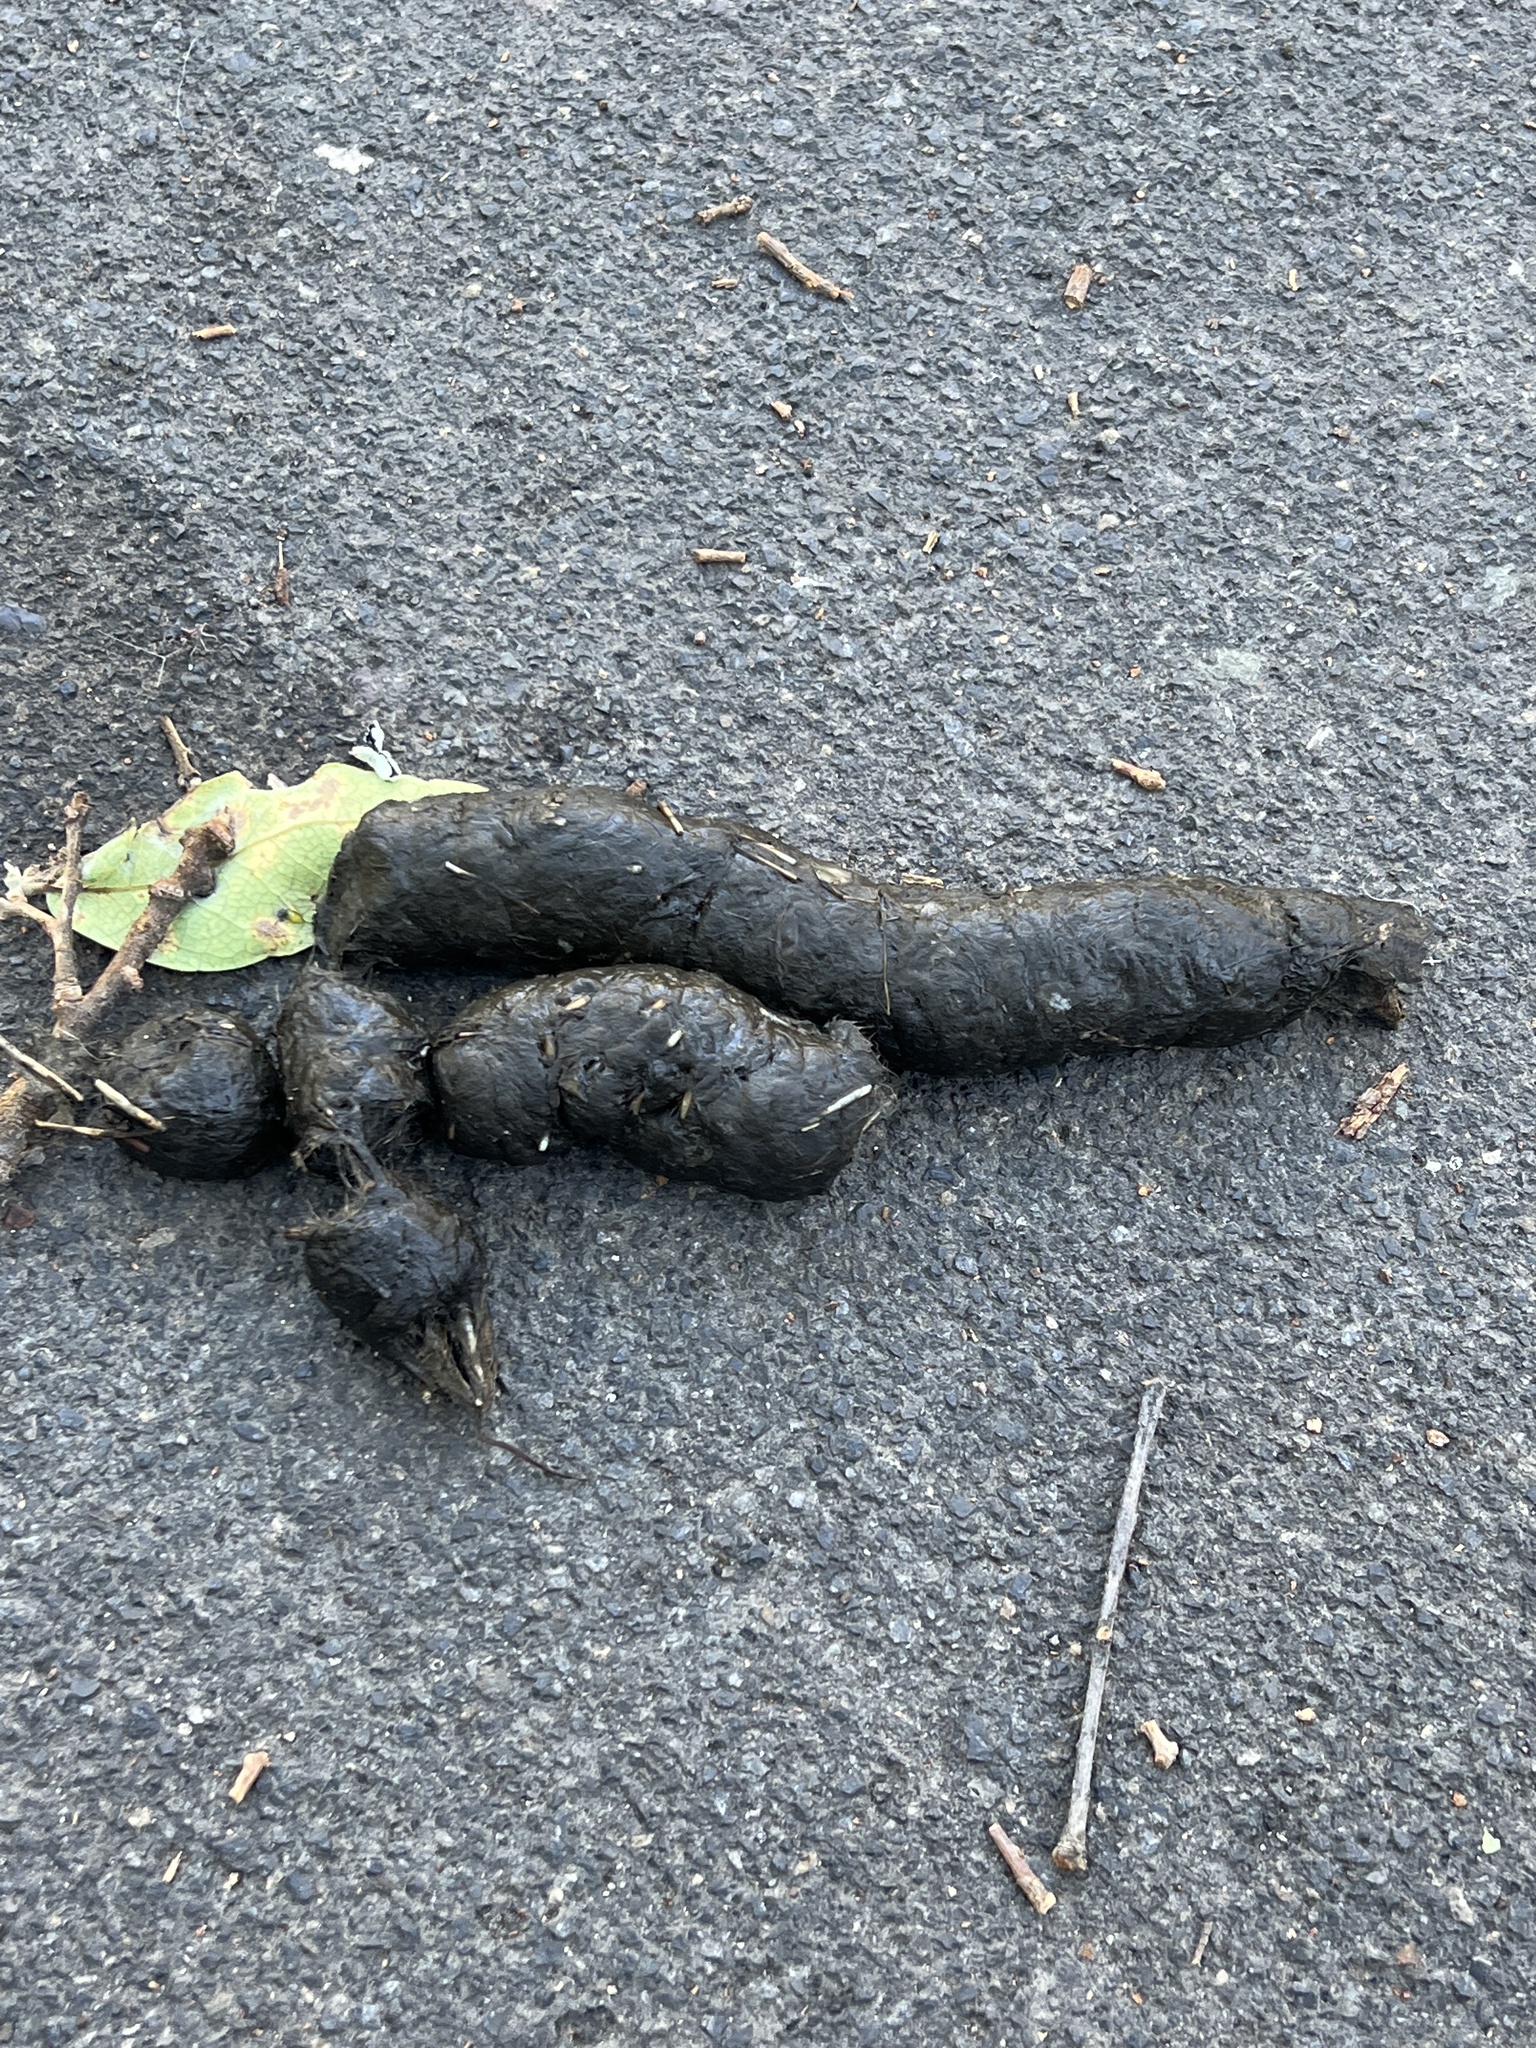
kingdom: Animalia
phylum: Chordata
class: Mammalia
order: Carnivora
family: Canidae
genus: Canis
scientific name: Canis latrans
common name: Coyote
